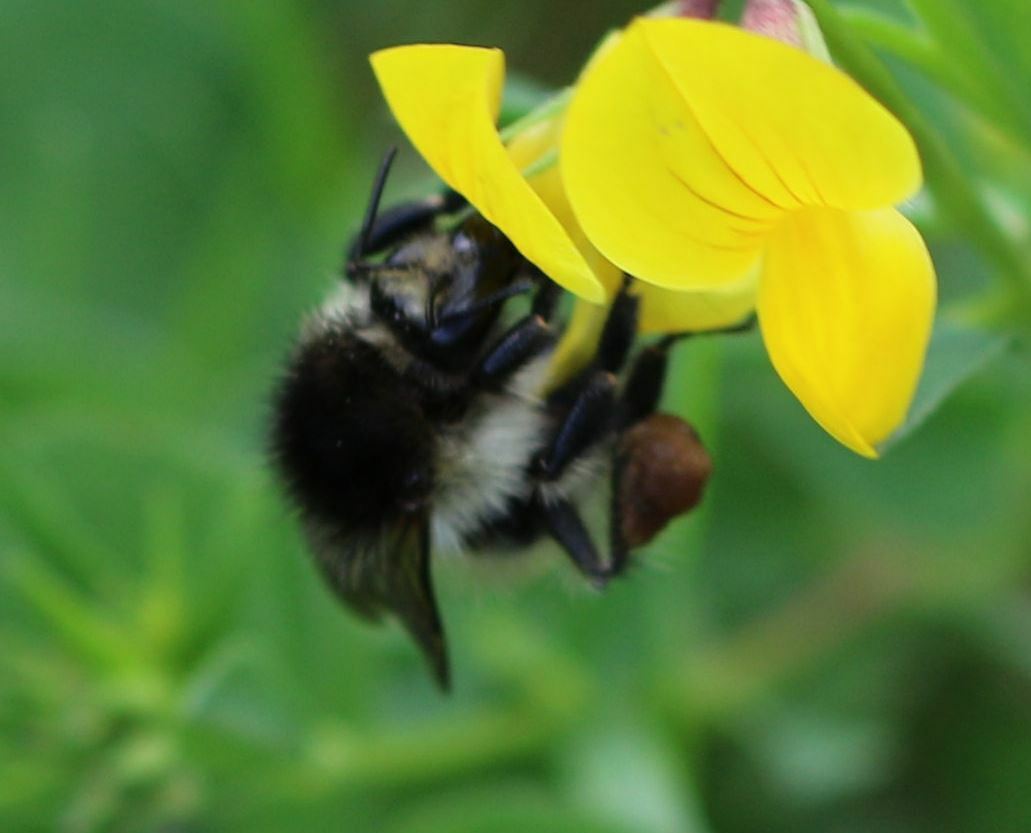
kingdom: Animalia
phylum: Arthropoda
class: Insecta
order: Hymenoptera
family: Apidae
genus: Bombus
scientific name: Bombus humilis
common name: Brown-banded carder-bee
